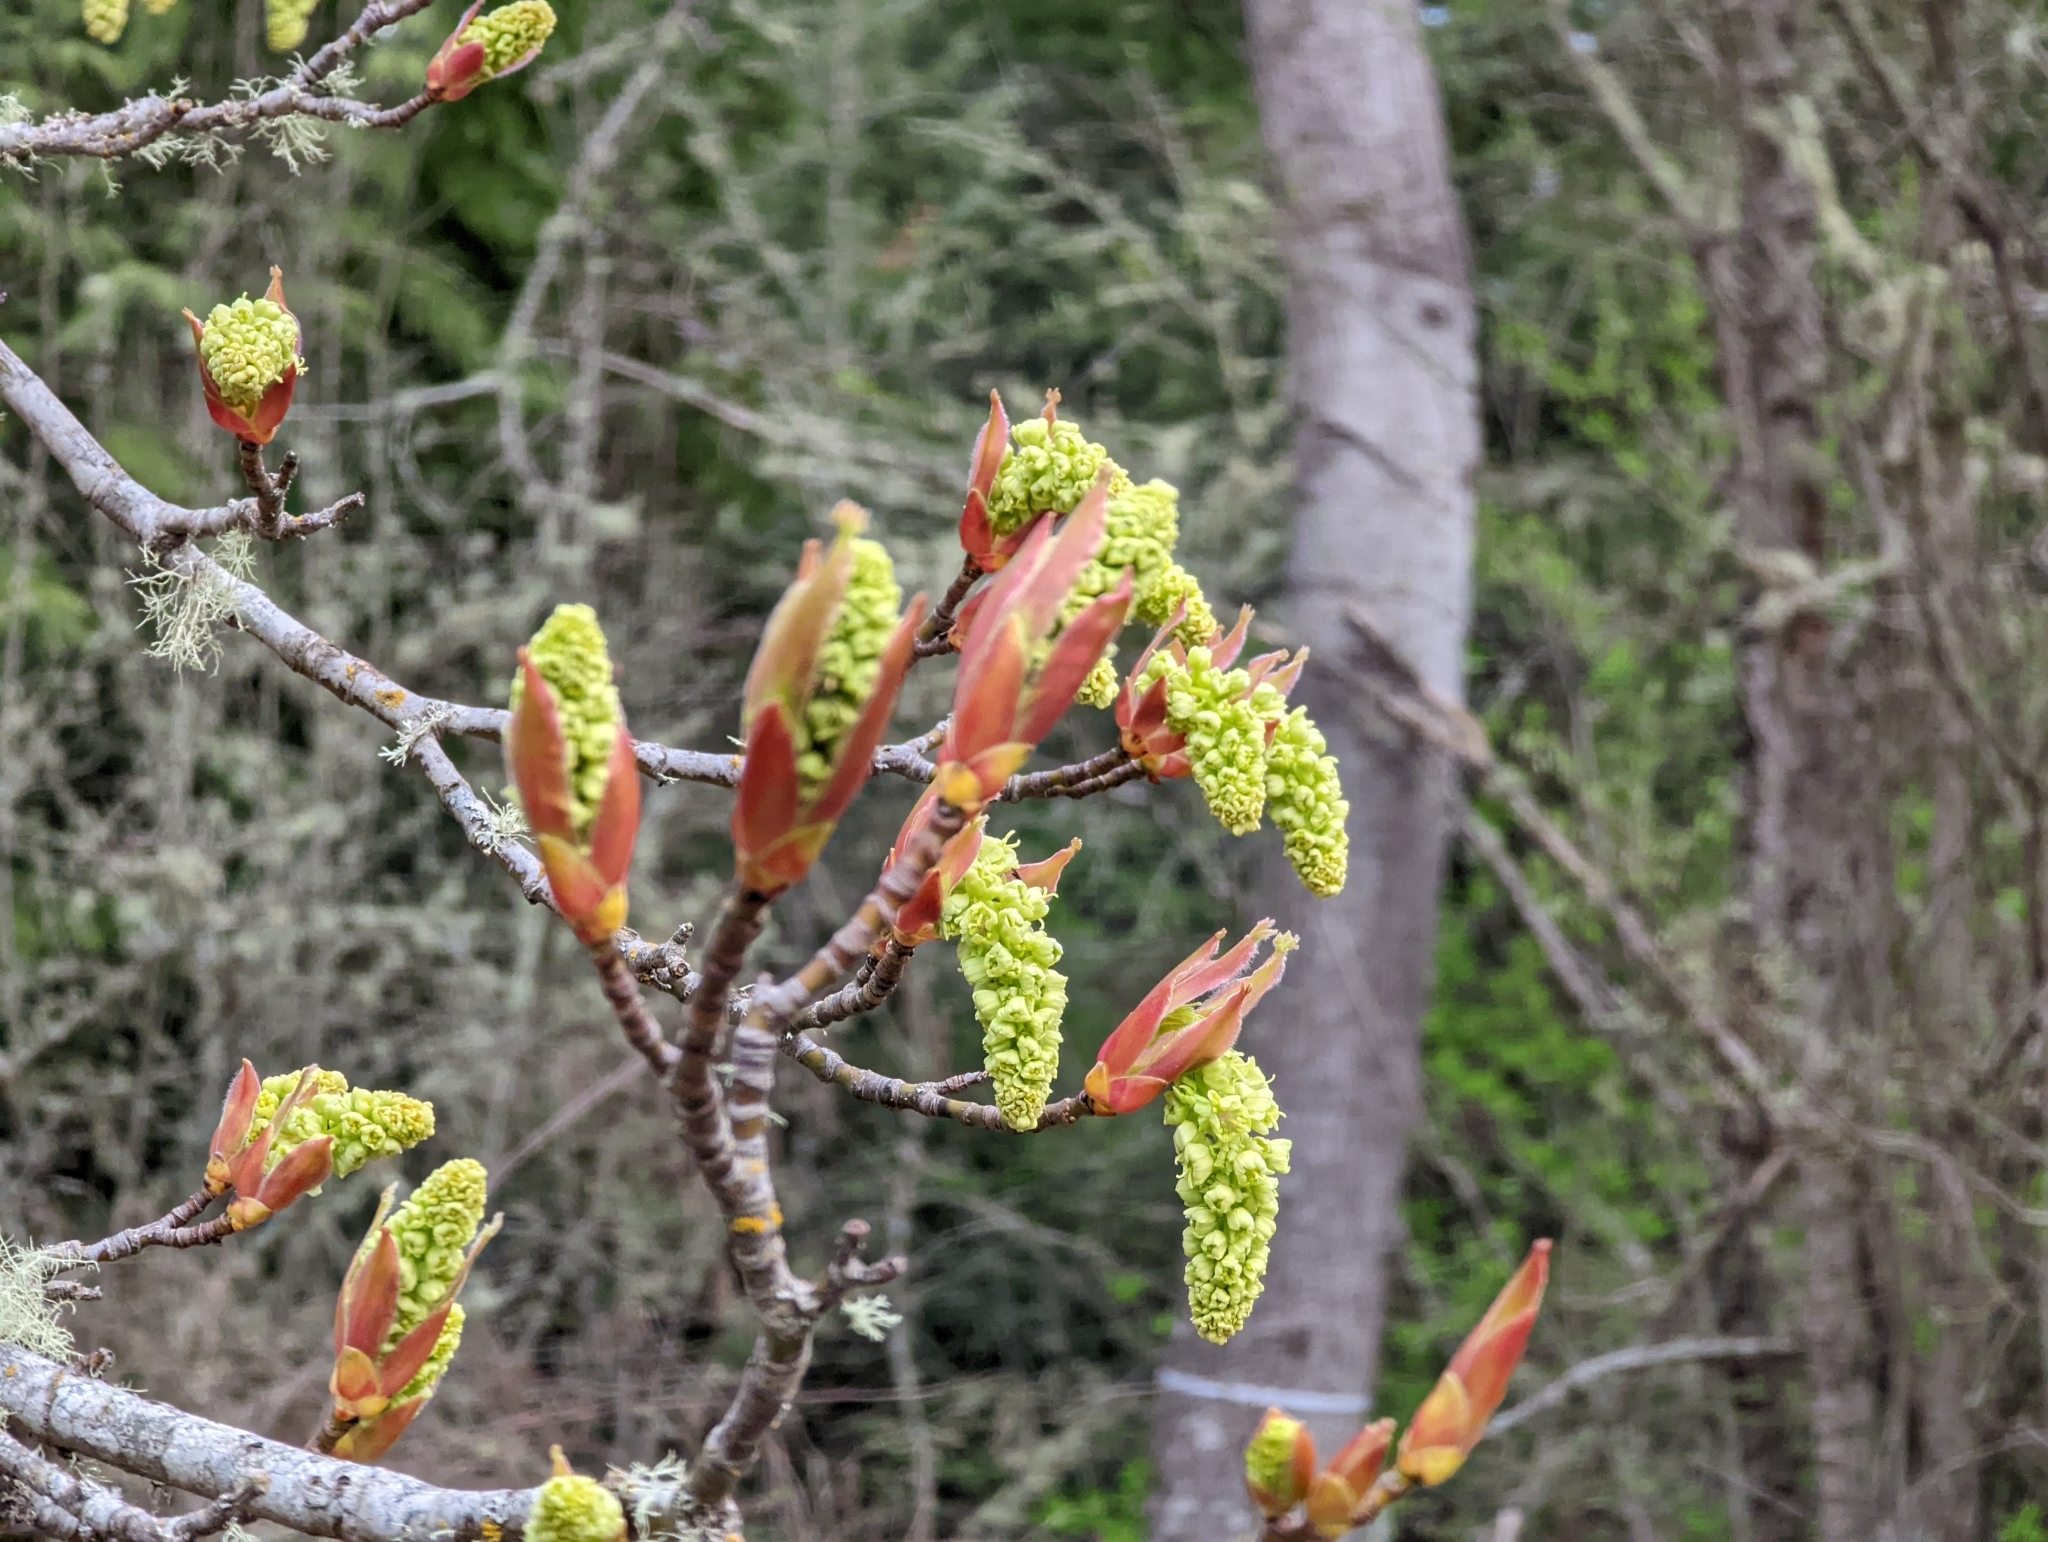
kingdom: Plantae
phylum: Tracheophyta
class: Magnoliopsida
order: Sapindales
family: Sapindaceae
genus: Acer
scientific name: Acer macrophyllum
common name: Oregon maple
